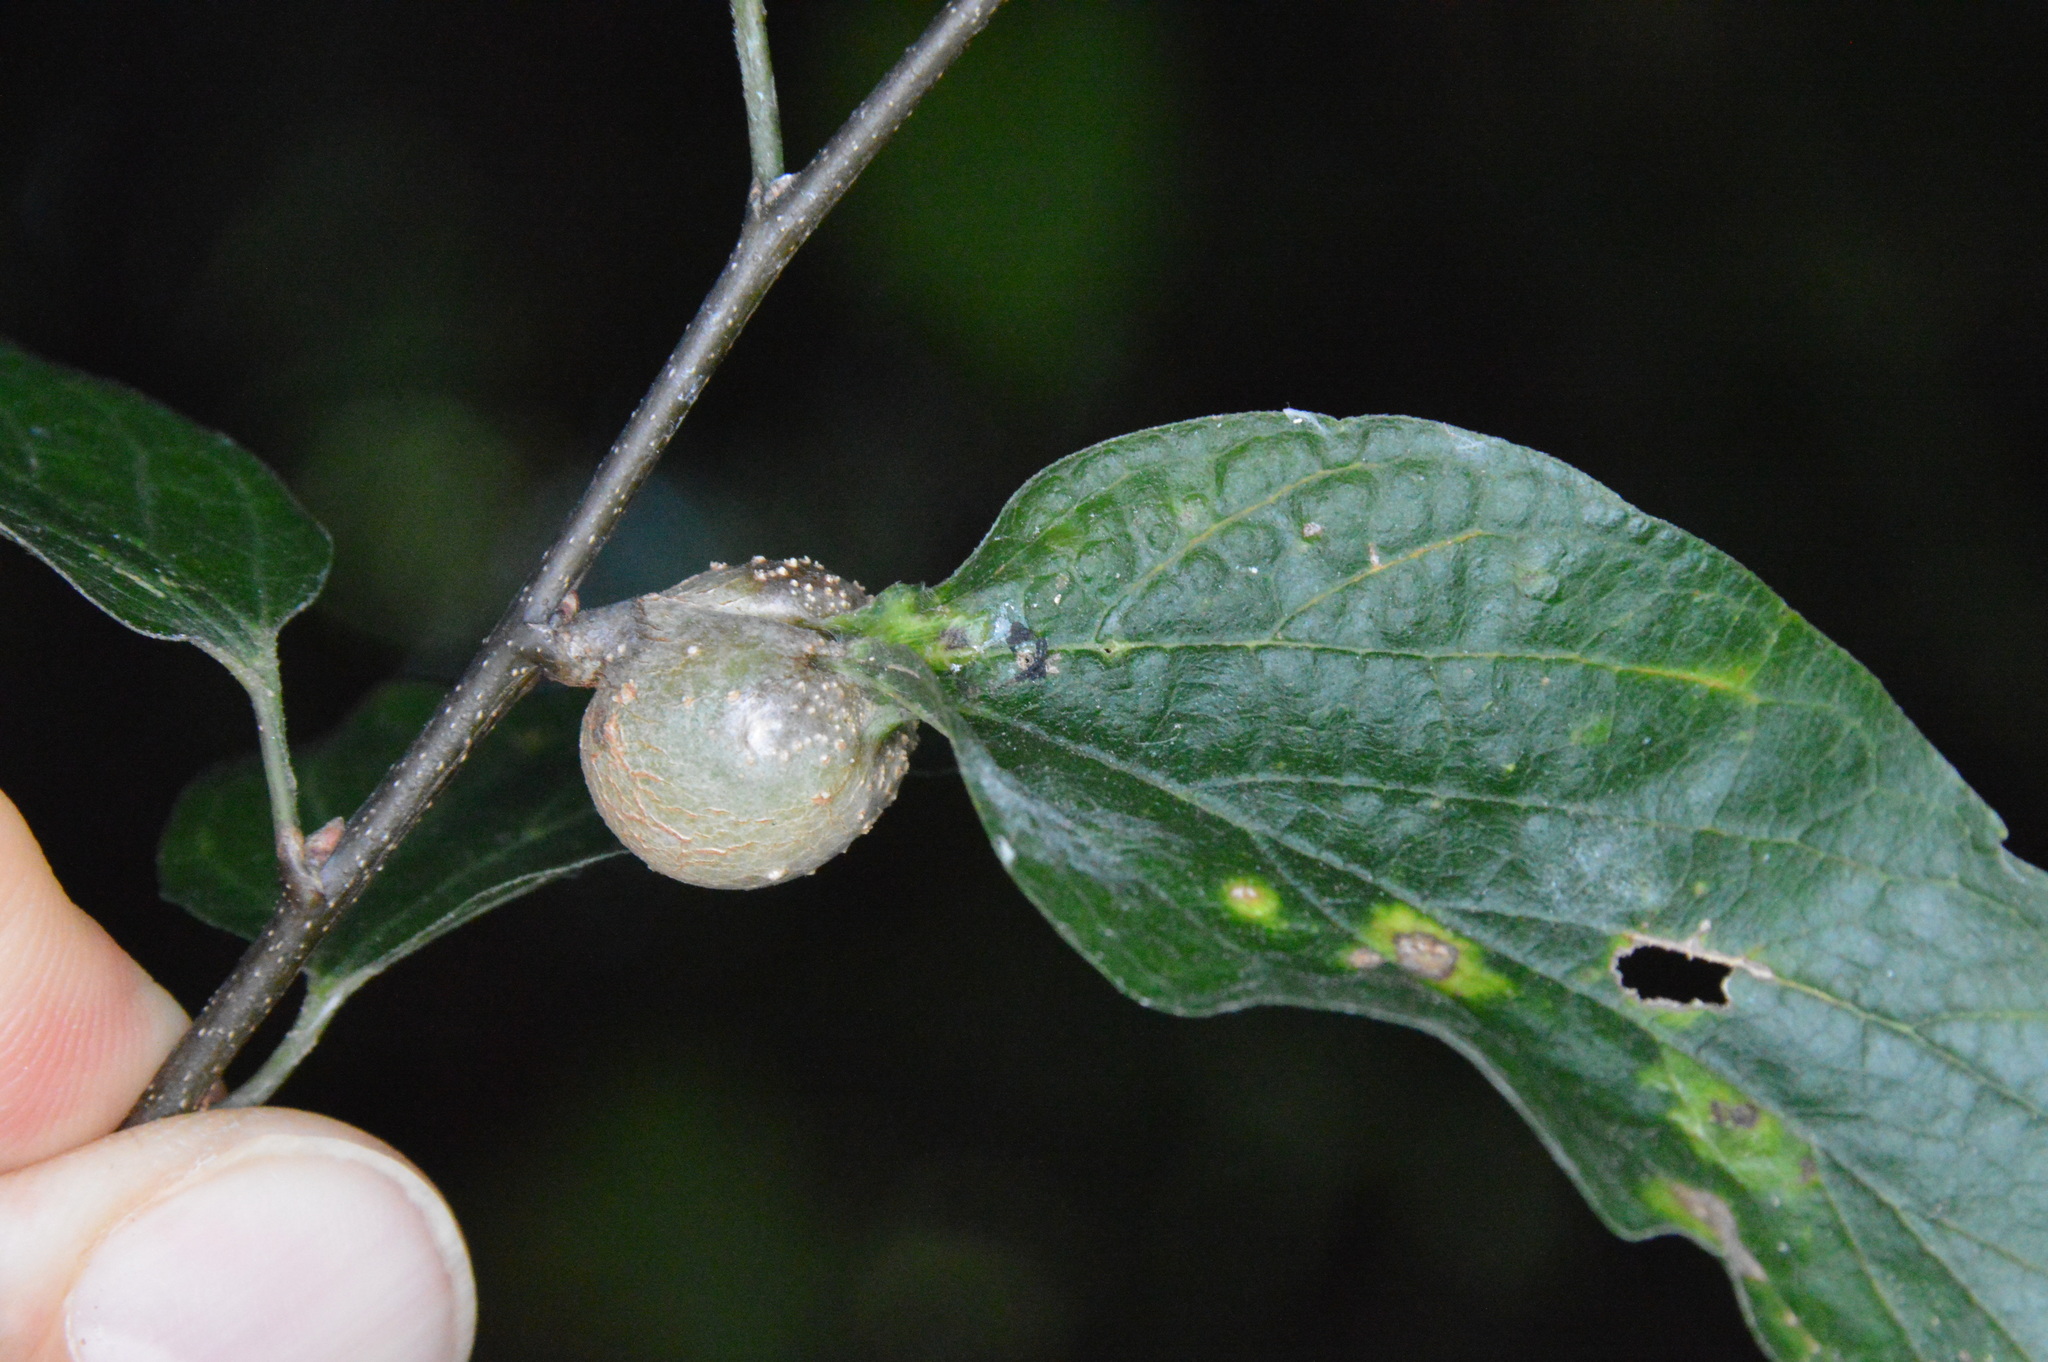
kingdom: Animalia
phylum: Arthropoda
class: Insecta
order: Hemiptera
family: Aphalaridae
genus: Pachypsylla
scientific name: Pachypsylla venusta
